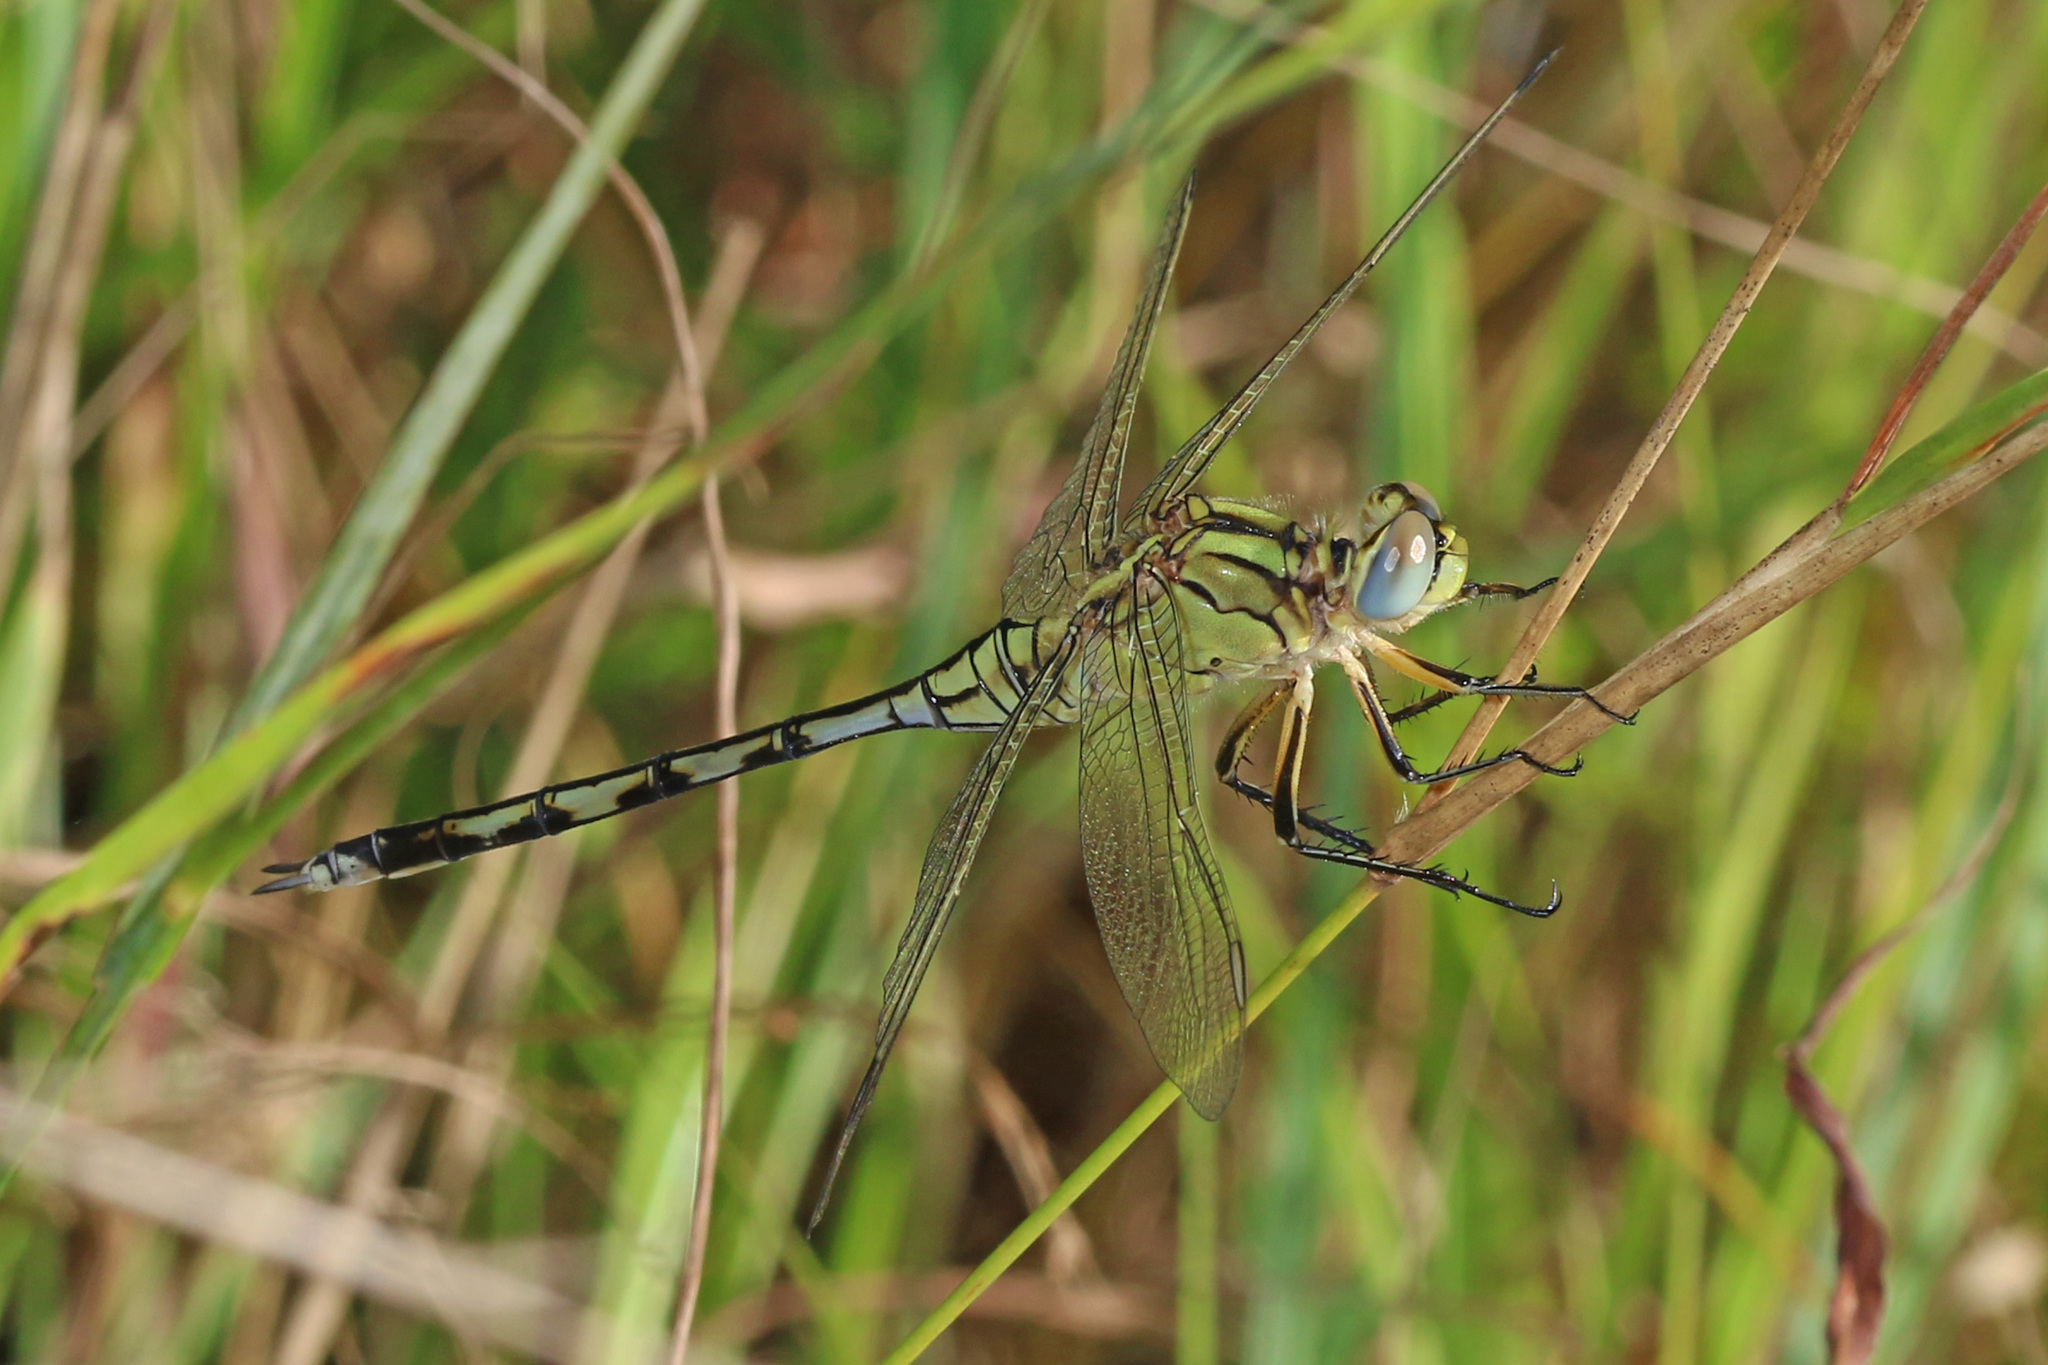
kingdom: Animalia
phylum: Arthropoda
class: Insecta
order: Odonata
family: Libellulidae
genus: Orthetrum
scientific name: Orthetrum trinacria
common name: Long skimmer
